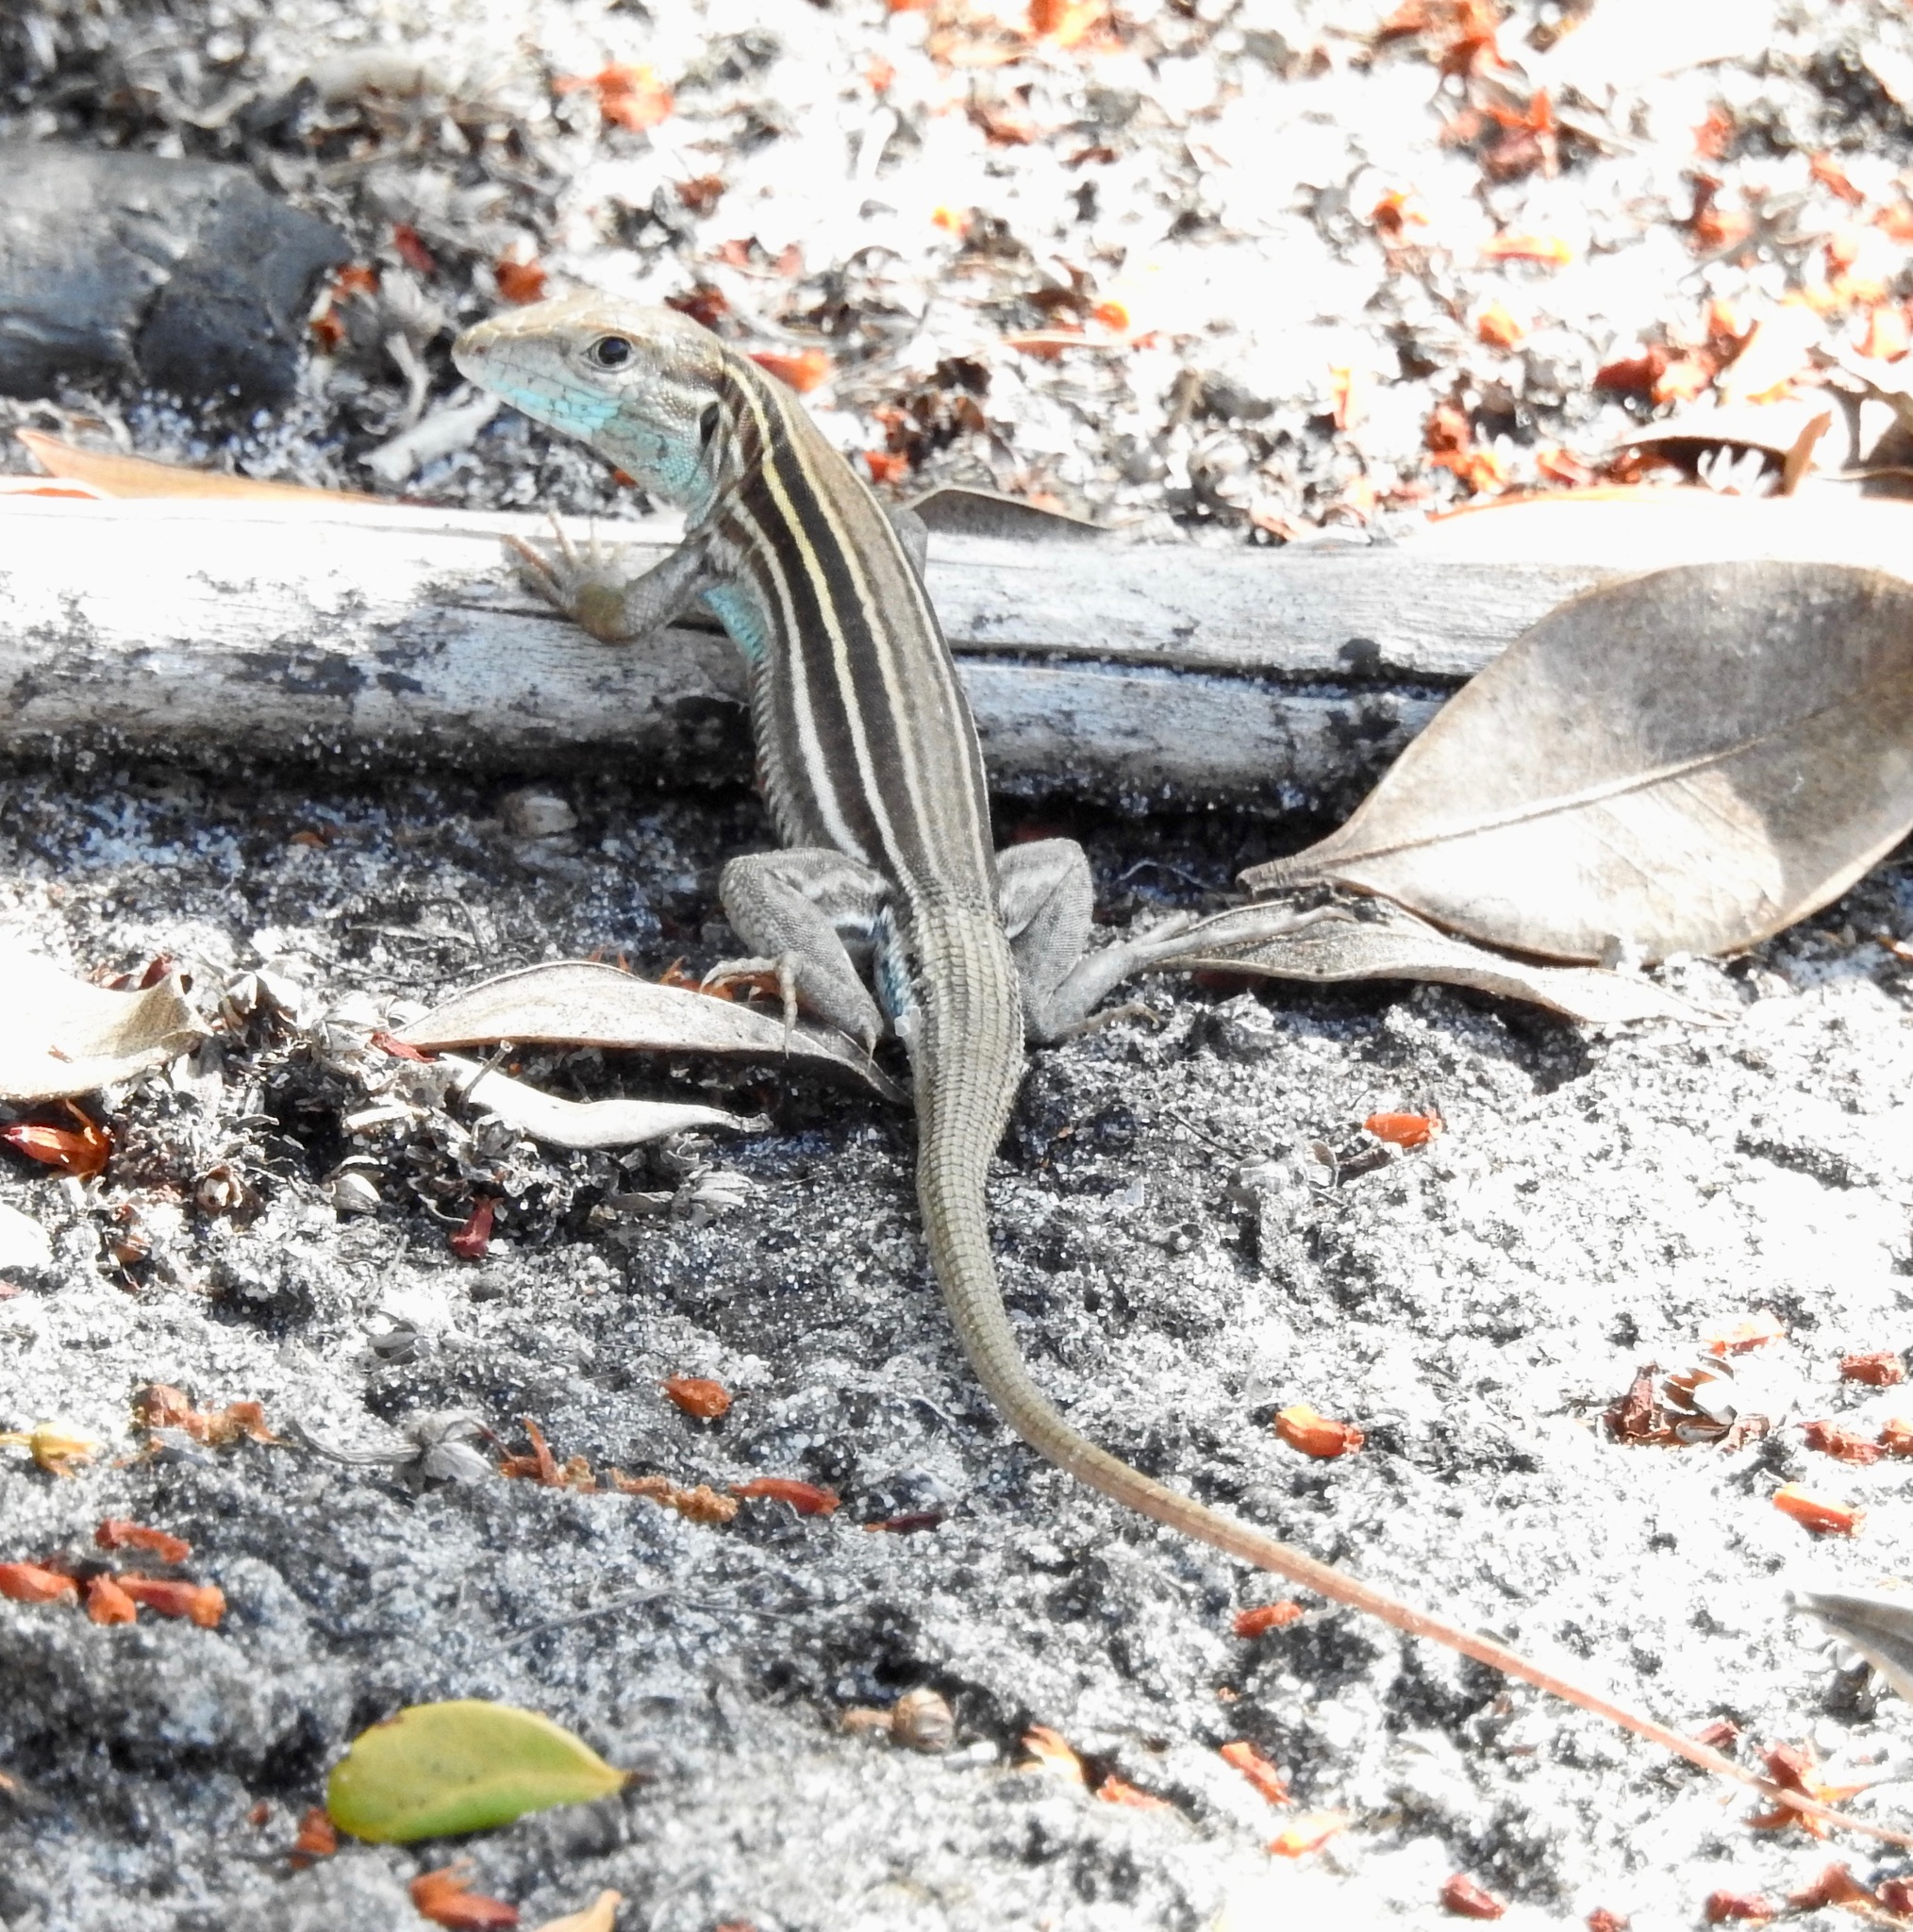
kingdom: Animalia
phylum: Chordata
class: Squamata
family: Teiidae
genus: Aspidoscelis
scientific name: Aspidoscelis sexlineatus
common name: Six-lined racerunner
